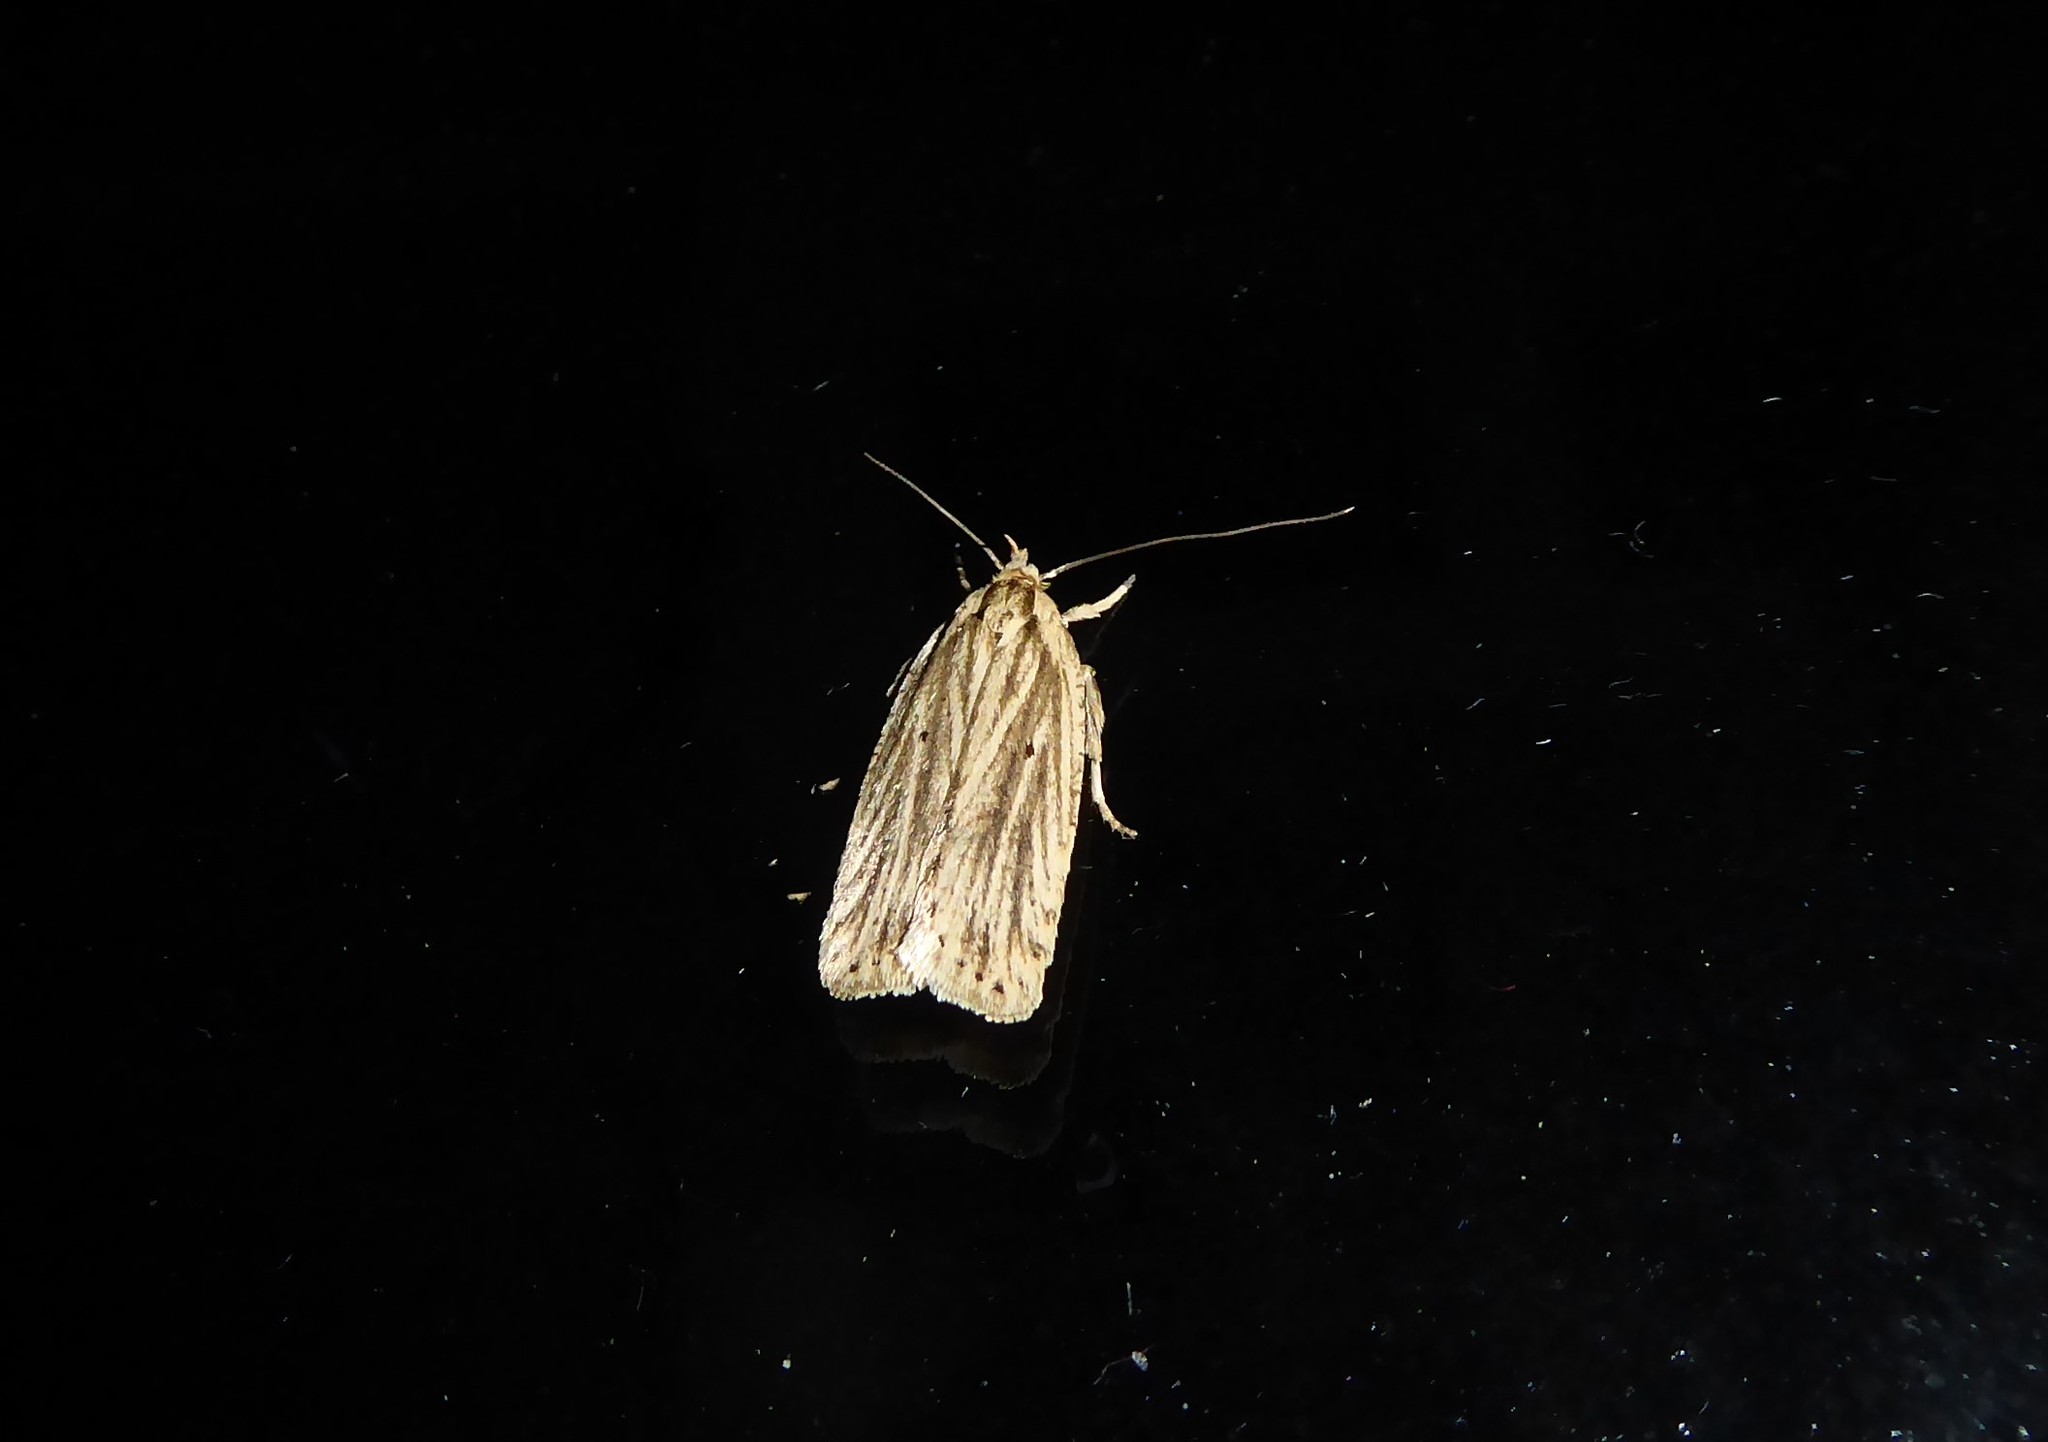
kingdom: Animalia
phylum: Arthropoda
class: Insecta
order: Lepidoptera
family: Depressariidae
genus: Agonopterix
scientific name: Agonopterix
